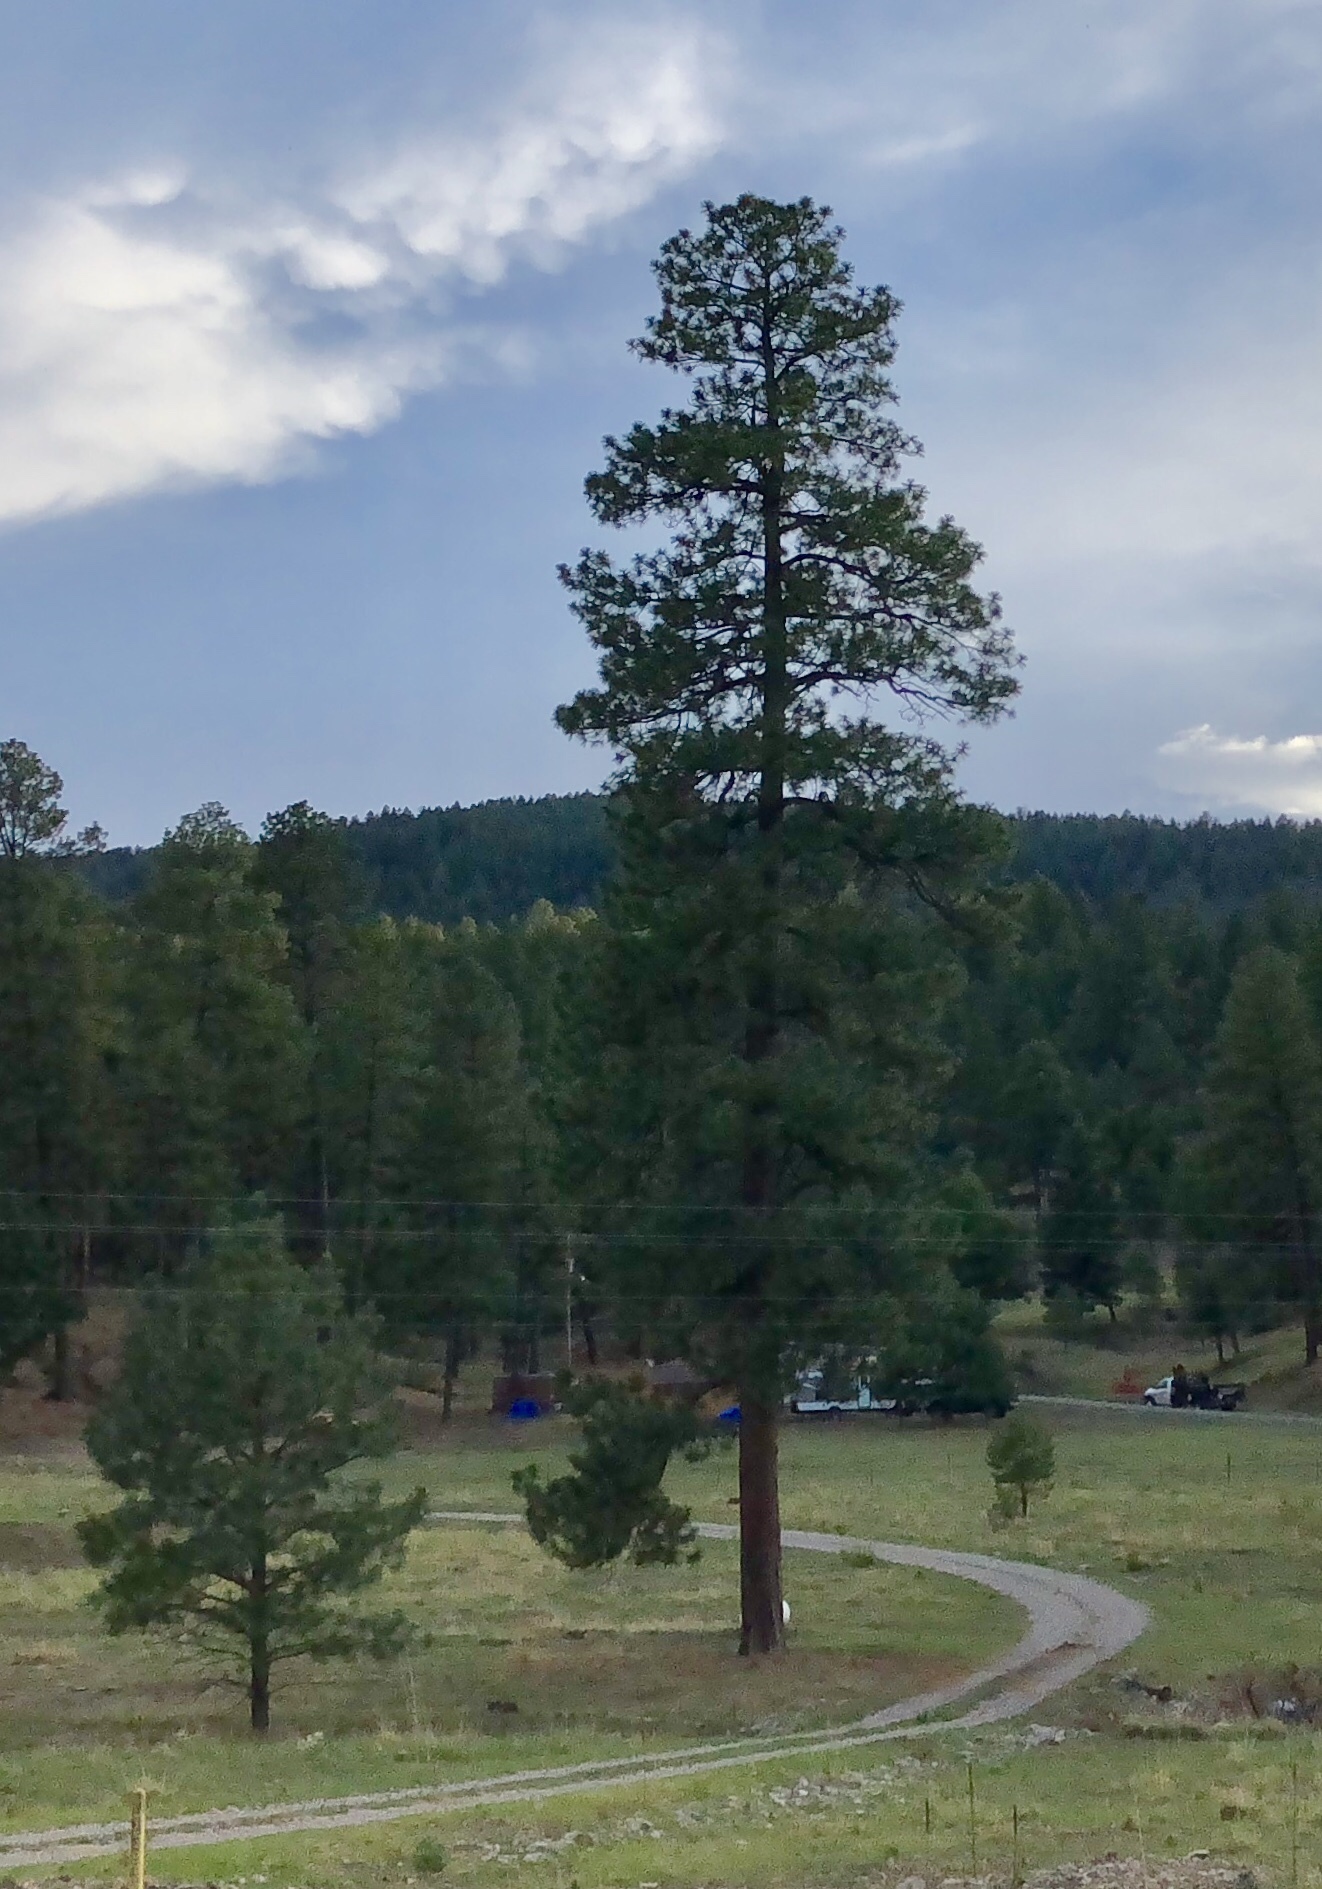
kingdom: Plantae
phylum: Tracheophyta
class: Pinopsida
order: Pinales
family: Pinaceae
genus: Pinus
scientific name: Pinus ponderosa
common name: Western yellow-pine
